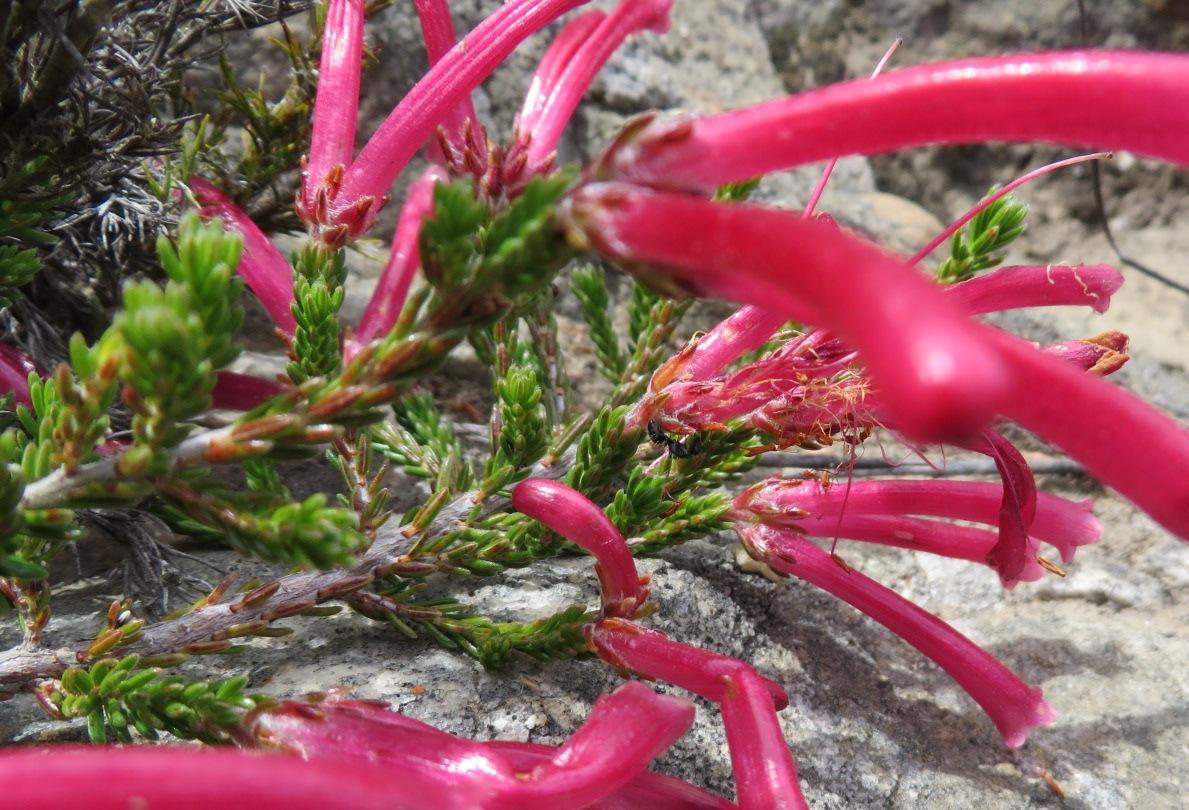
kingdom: Plantae
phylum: Tracheophyta
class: Magnoliopsida
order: Ericales
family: Ericaceae
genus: Erica
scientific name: Erica discolor
